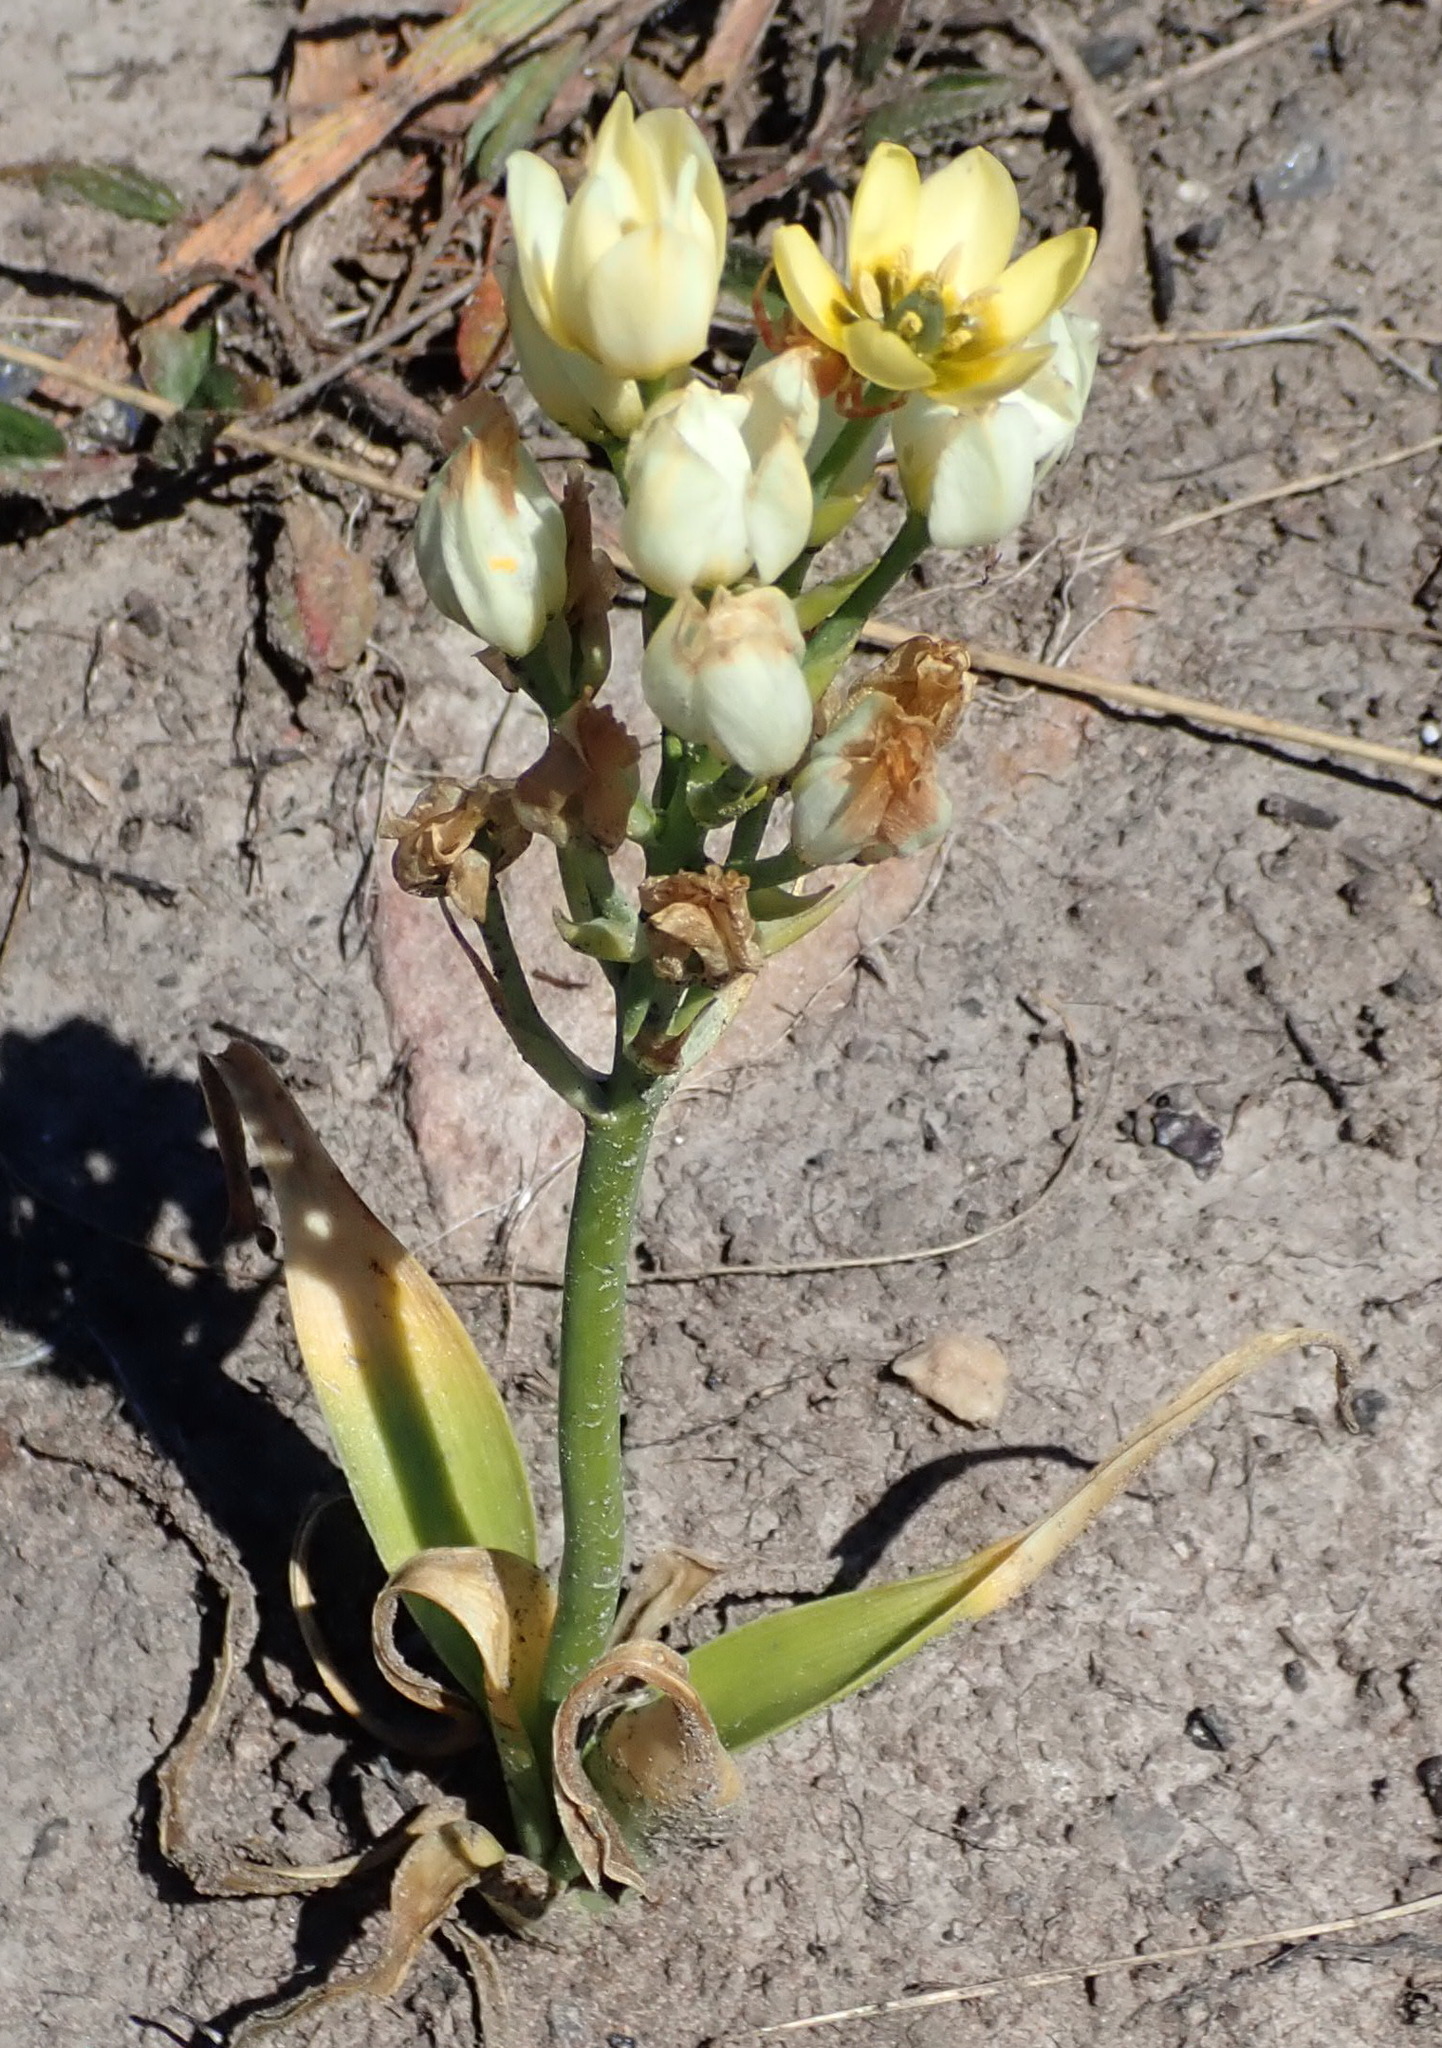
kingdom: Plantae
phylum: Tracheophyta
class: Liliopsida
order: Asparagales
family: Asparagaceae
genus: Ornithogalum
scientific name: Ornithogalum dubium
